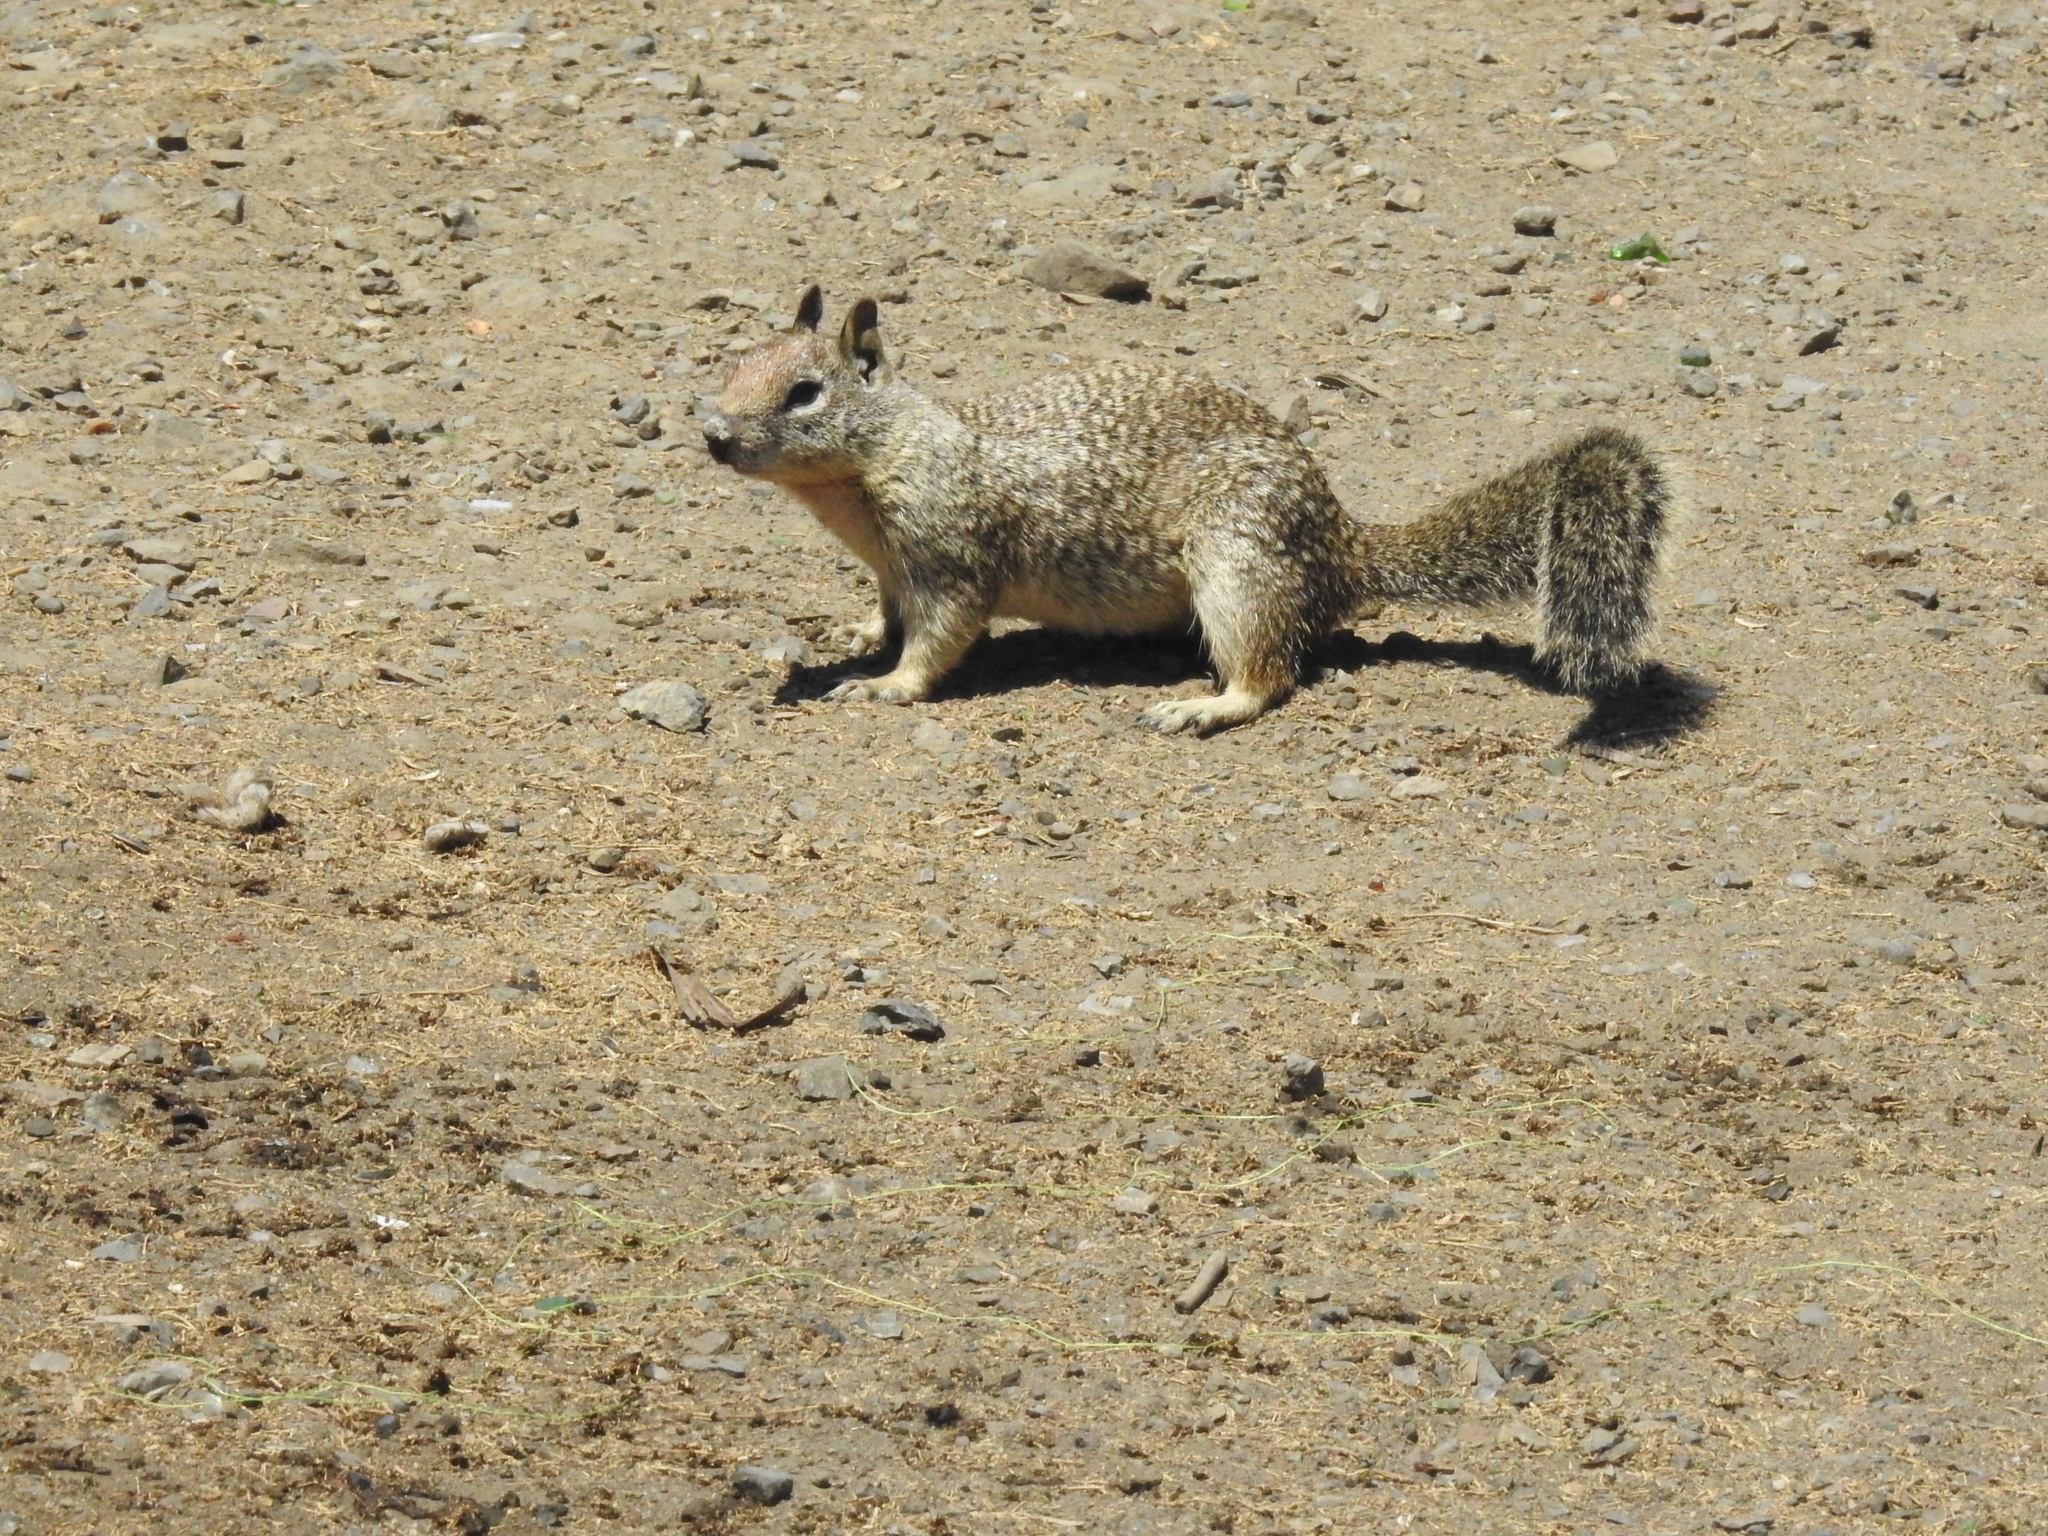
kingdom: Animalia
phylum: Chordata
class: Mammalia
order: Rodentia
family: Sciuridae
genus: Otospermophilus
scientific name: Otospermophilus beecheyi
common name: California ground squirrel
